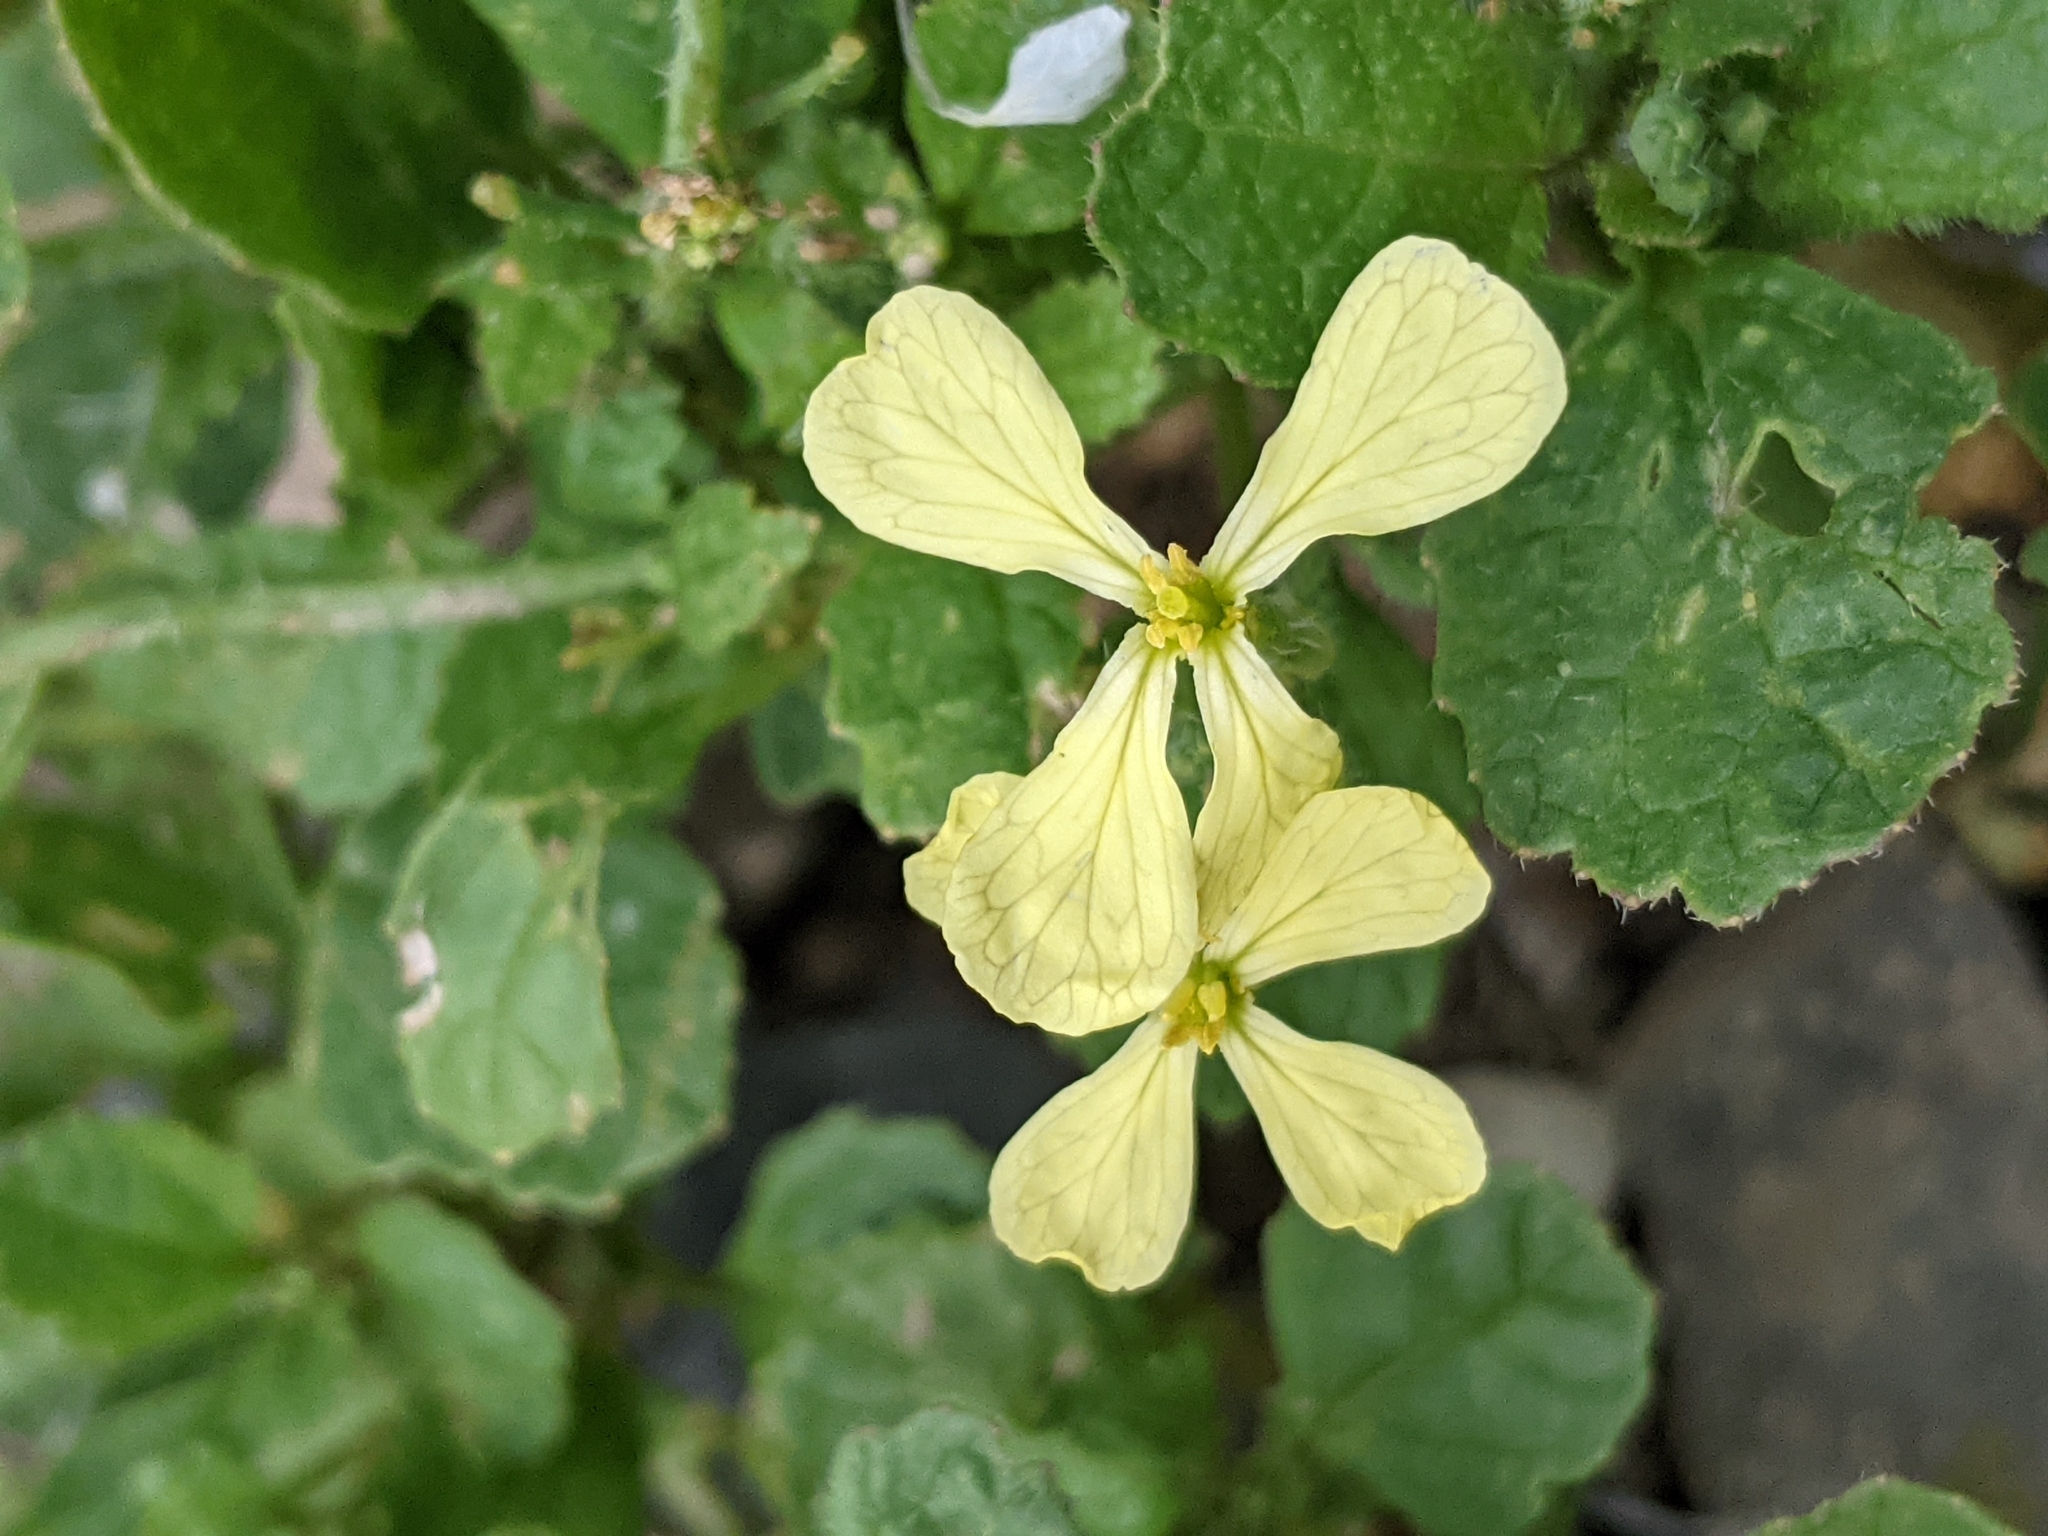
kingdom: Plantae
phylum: Tracheophyta
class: Magnoliopsida
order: Brassicales
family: Brassicaceae
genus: Raphanus
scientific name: Raphanus raphanistrum
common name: Wild radish
